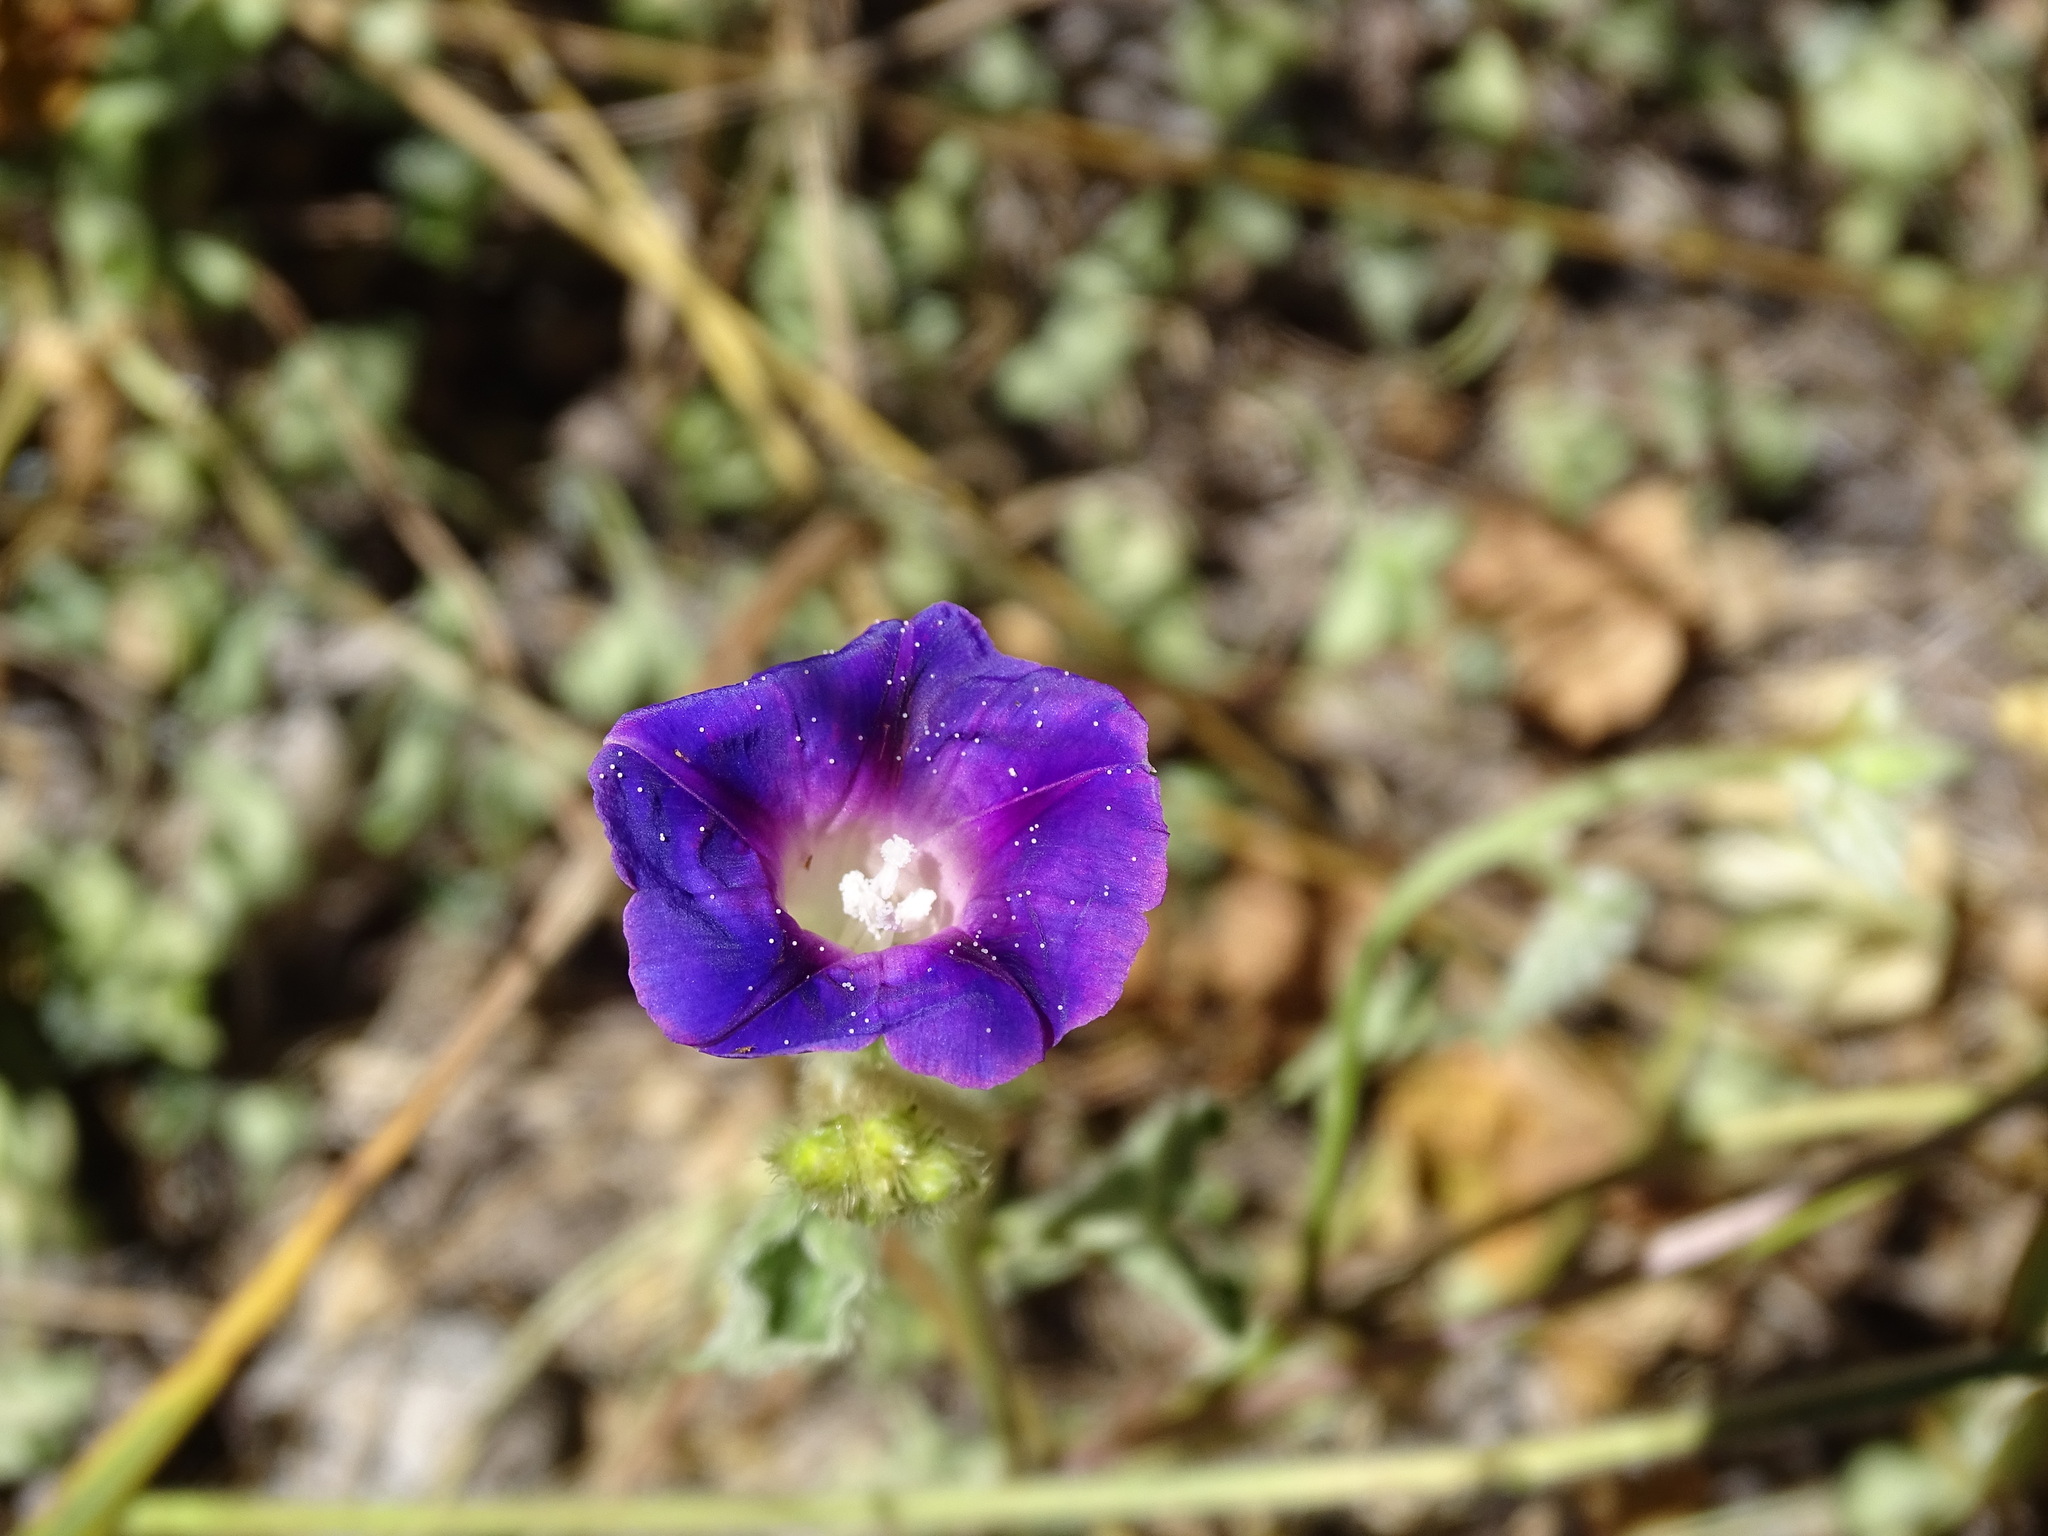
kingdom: Plantae
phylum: Tracheophyta
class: Magnoliopsida
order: Solanales
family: Convolvulaceae
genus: Ipomoea
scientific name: Ipomoea purpurea
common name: Common morning-glory
